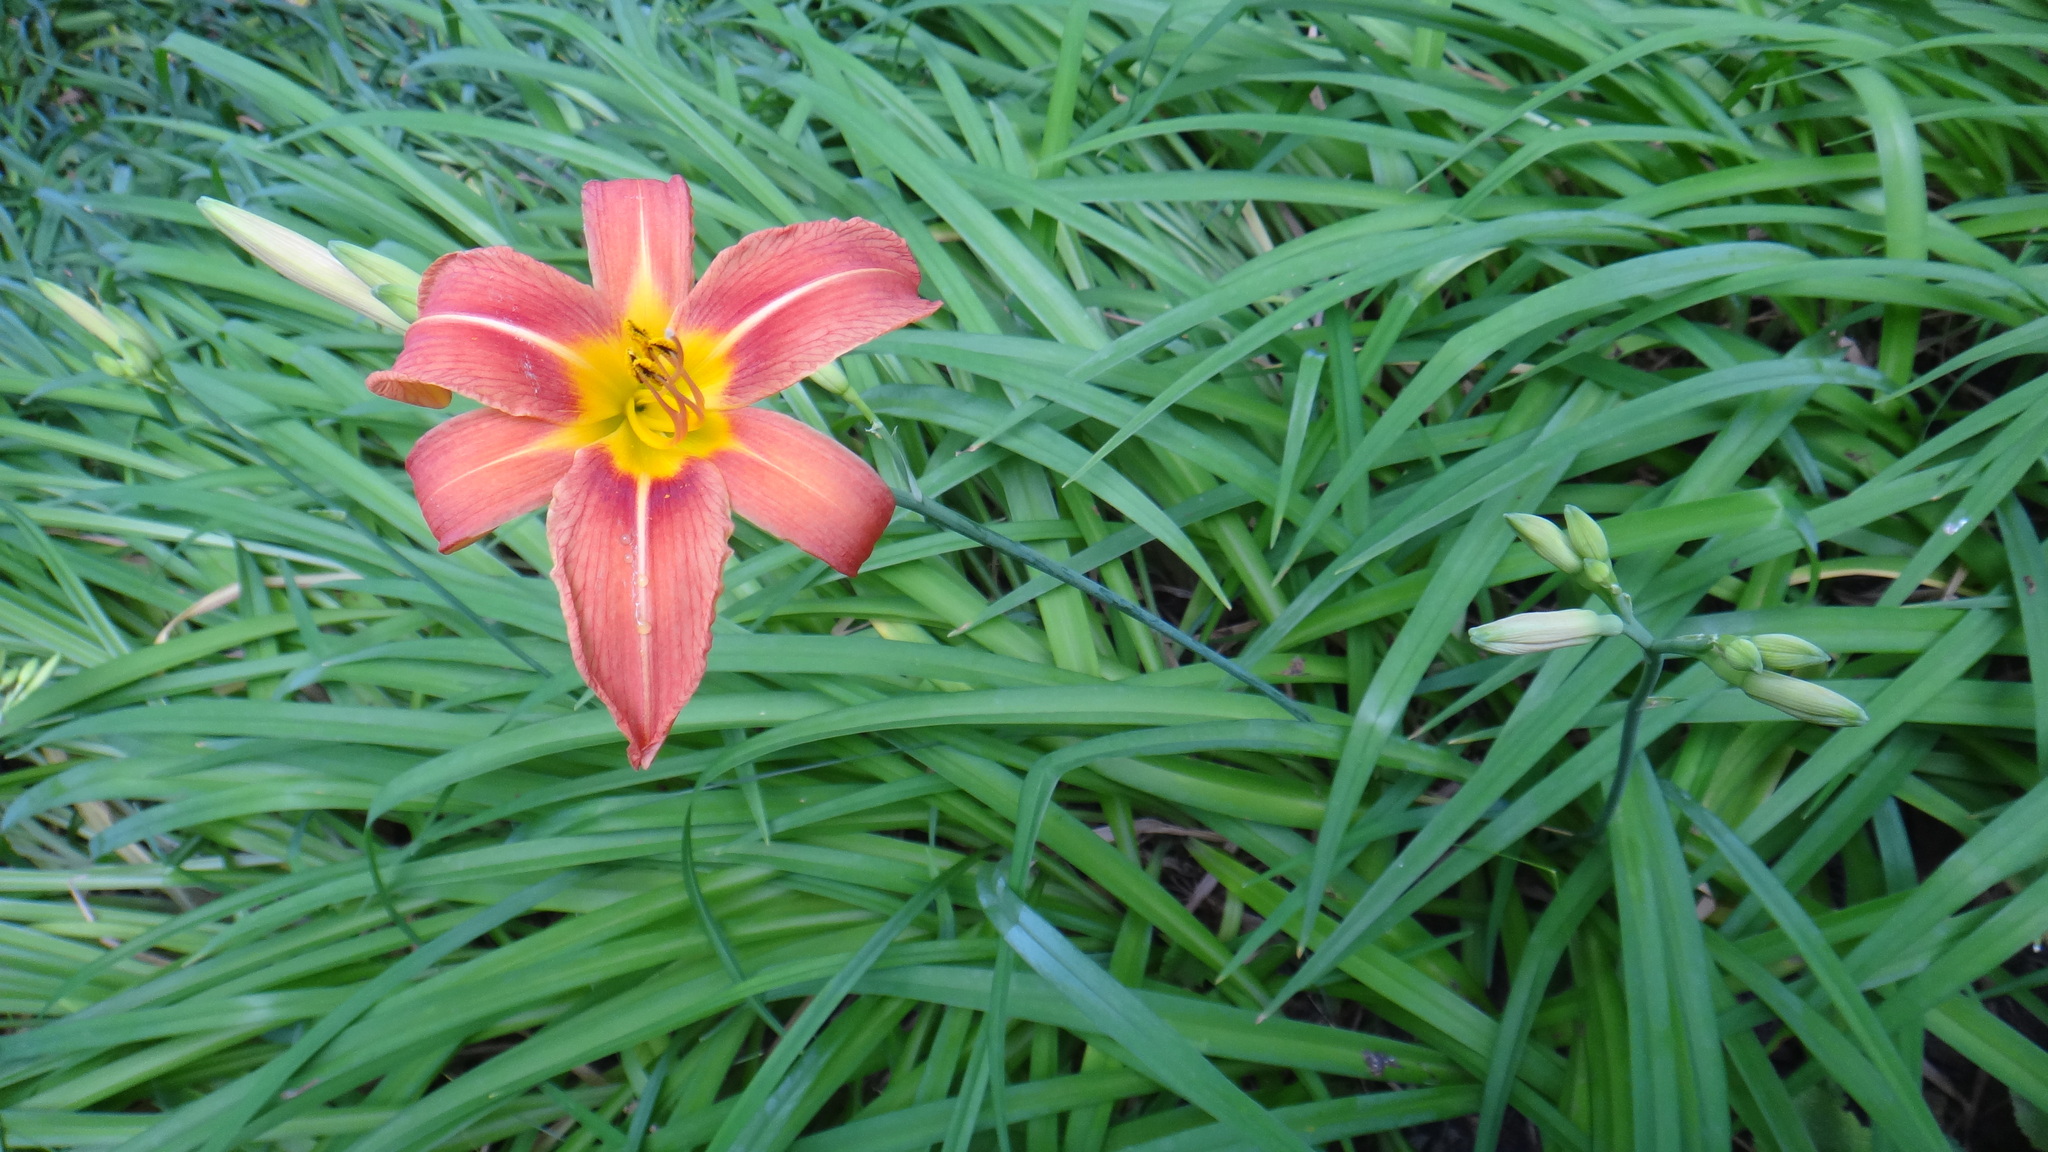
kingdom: Plantae
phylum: Tracheophyta
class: Liliopsida
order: Asparagales
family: Asphodelaceae
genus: Hemerocallis
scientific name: Hemerocallis fulva
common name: Orange day-lily
